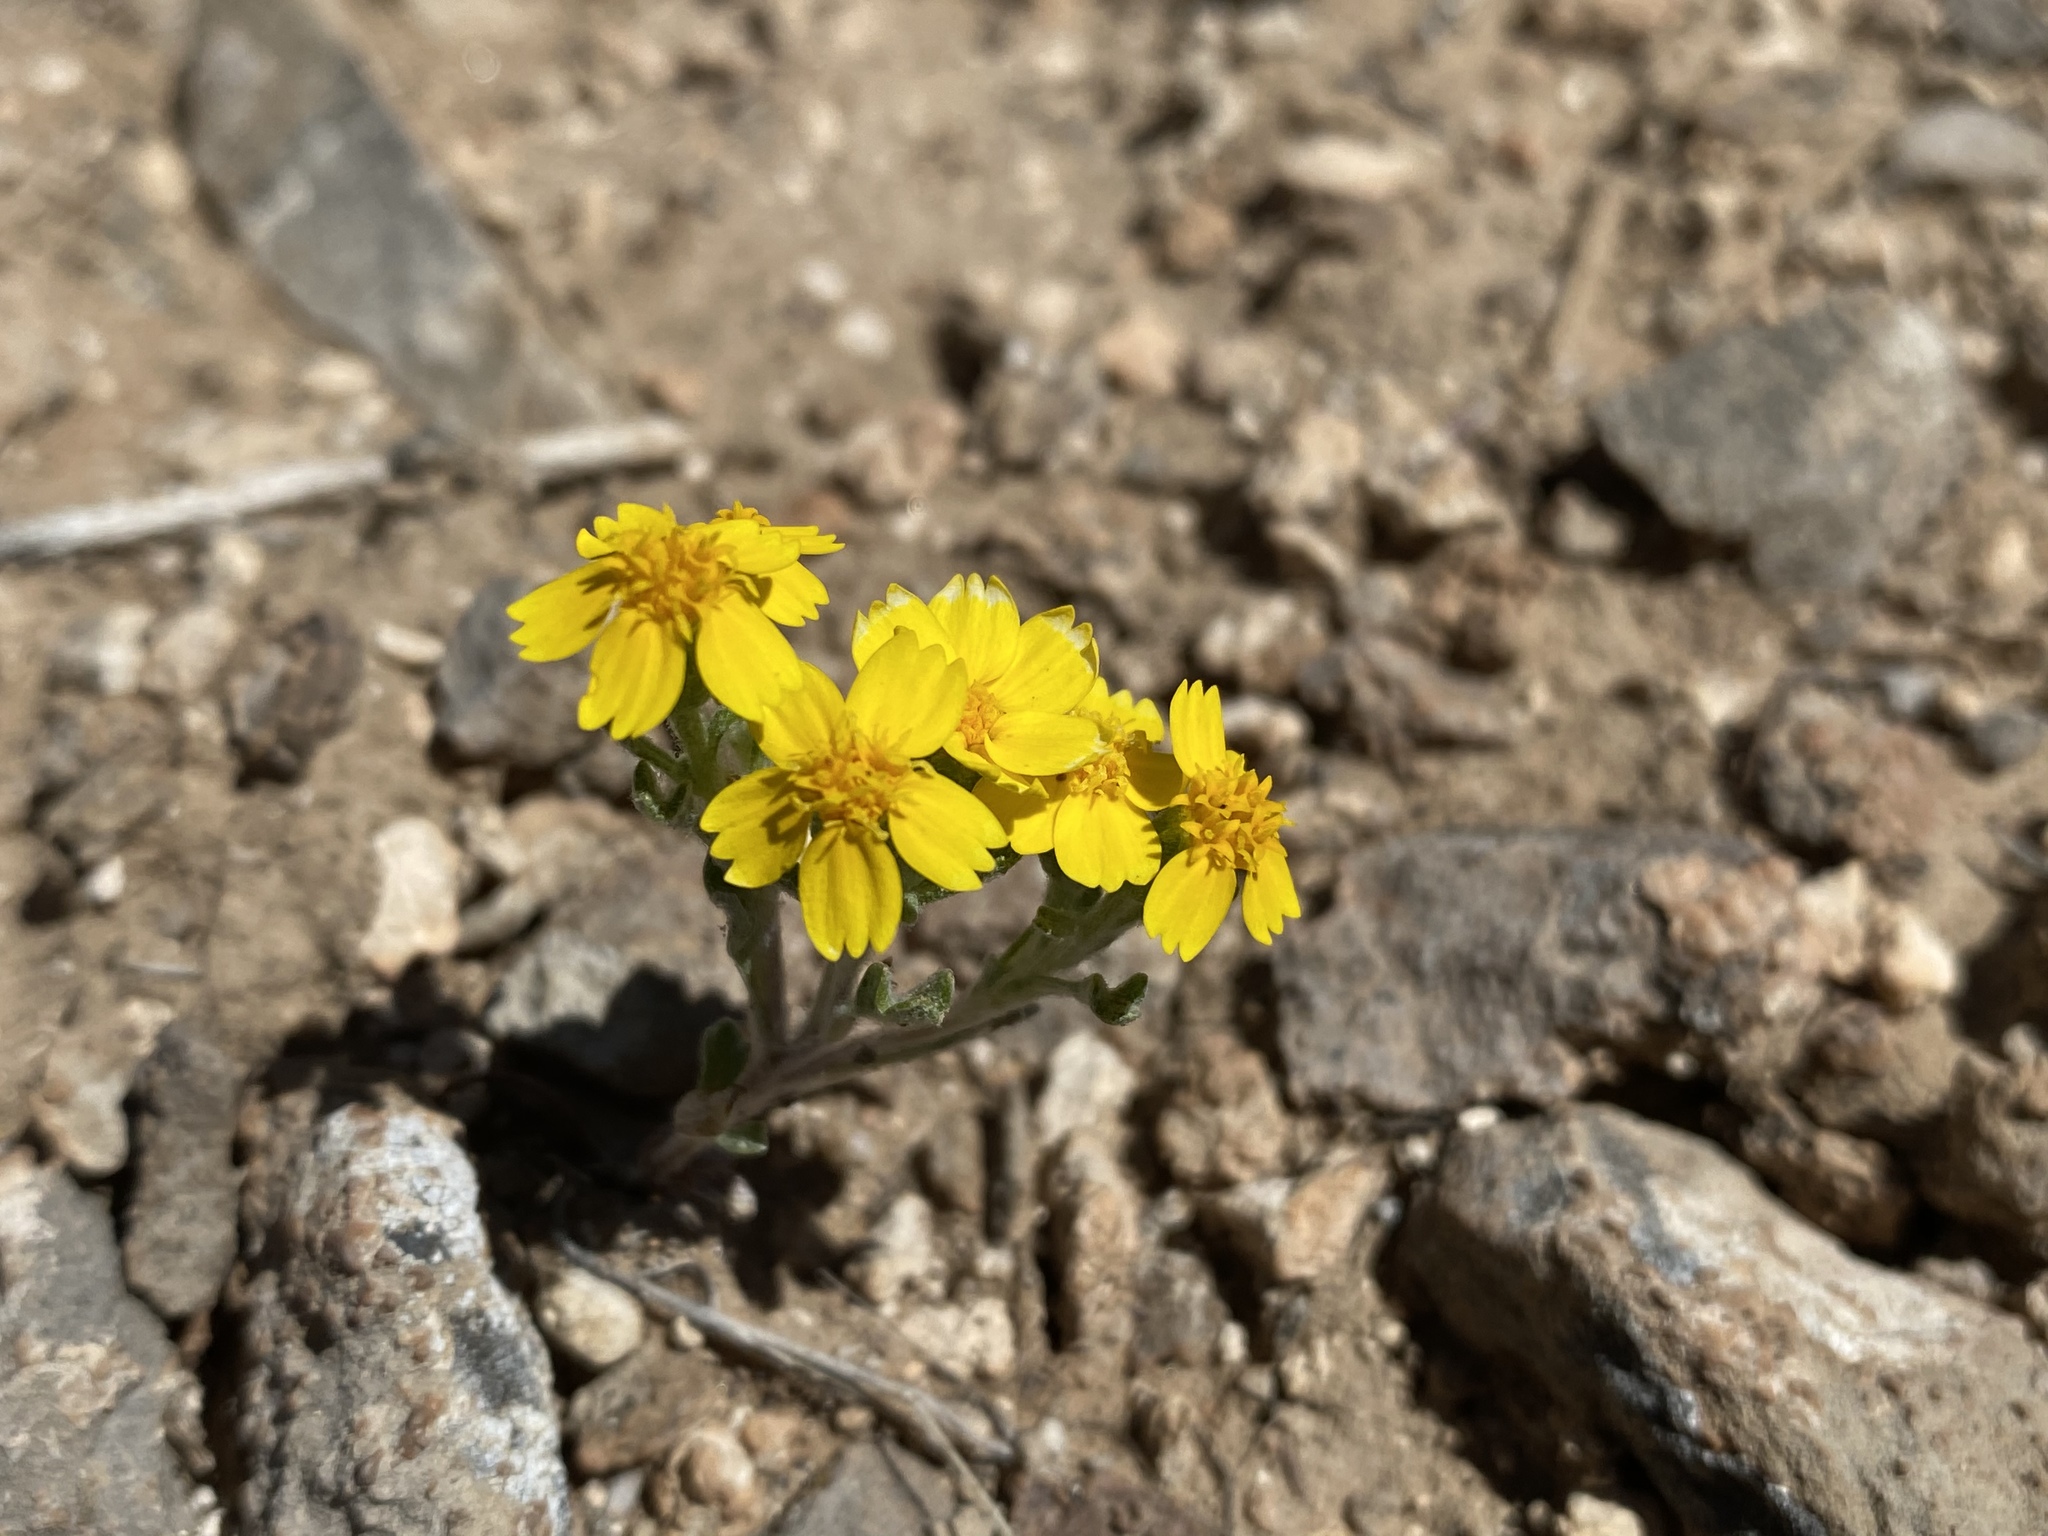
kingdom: Plantae
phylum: Tracheophyta
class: Magnoliopsida
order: Asterales
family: Asteraceae
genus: Syntrichopappus
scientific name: Syntrichopappus fremontii
